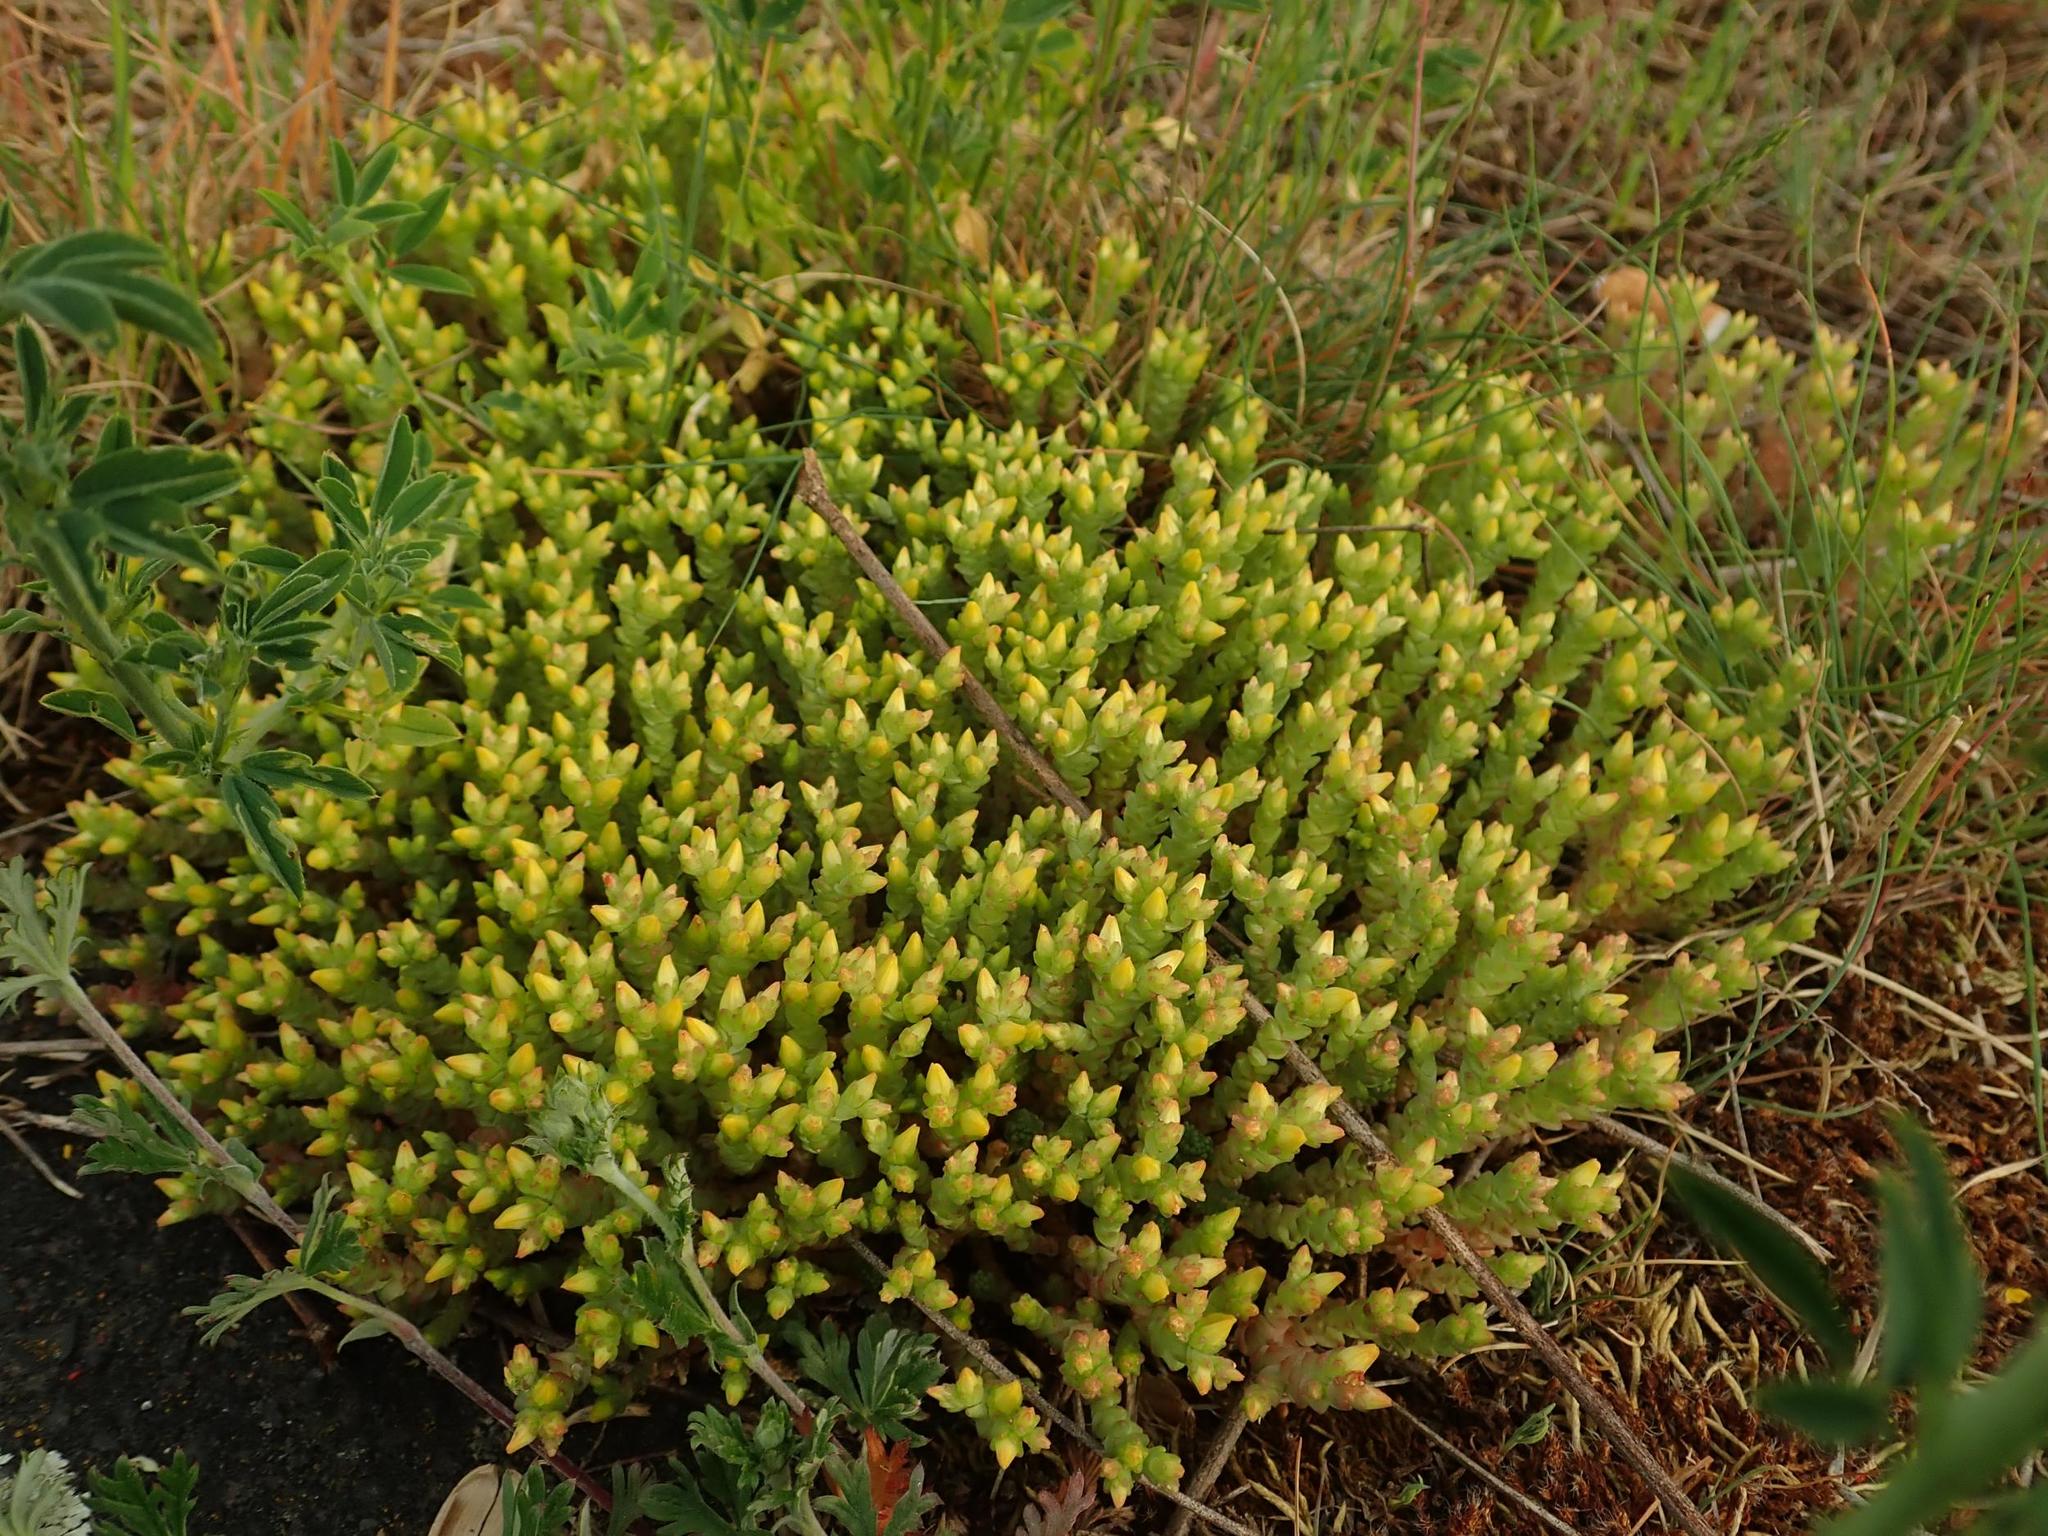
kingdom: Plantae
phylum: Tracheophyta
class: Magnoliopsida
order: Saxifragales
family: Crassulaceae
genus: Sedum
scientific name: Sedum acre
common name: Biting stonecrop
